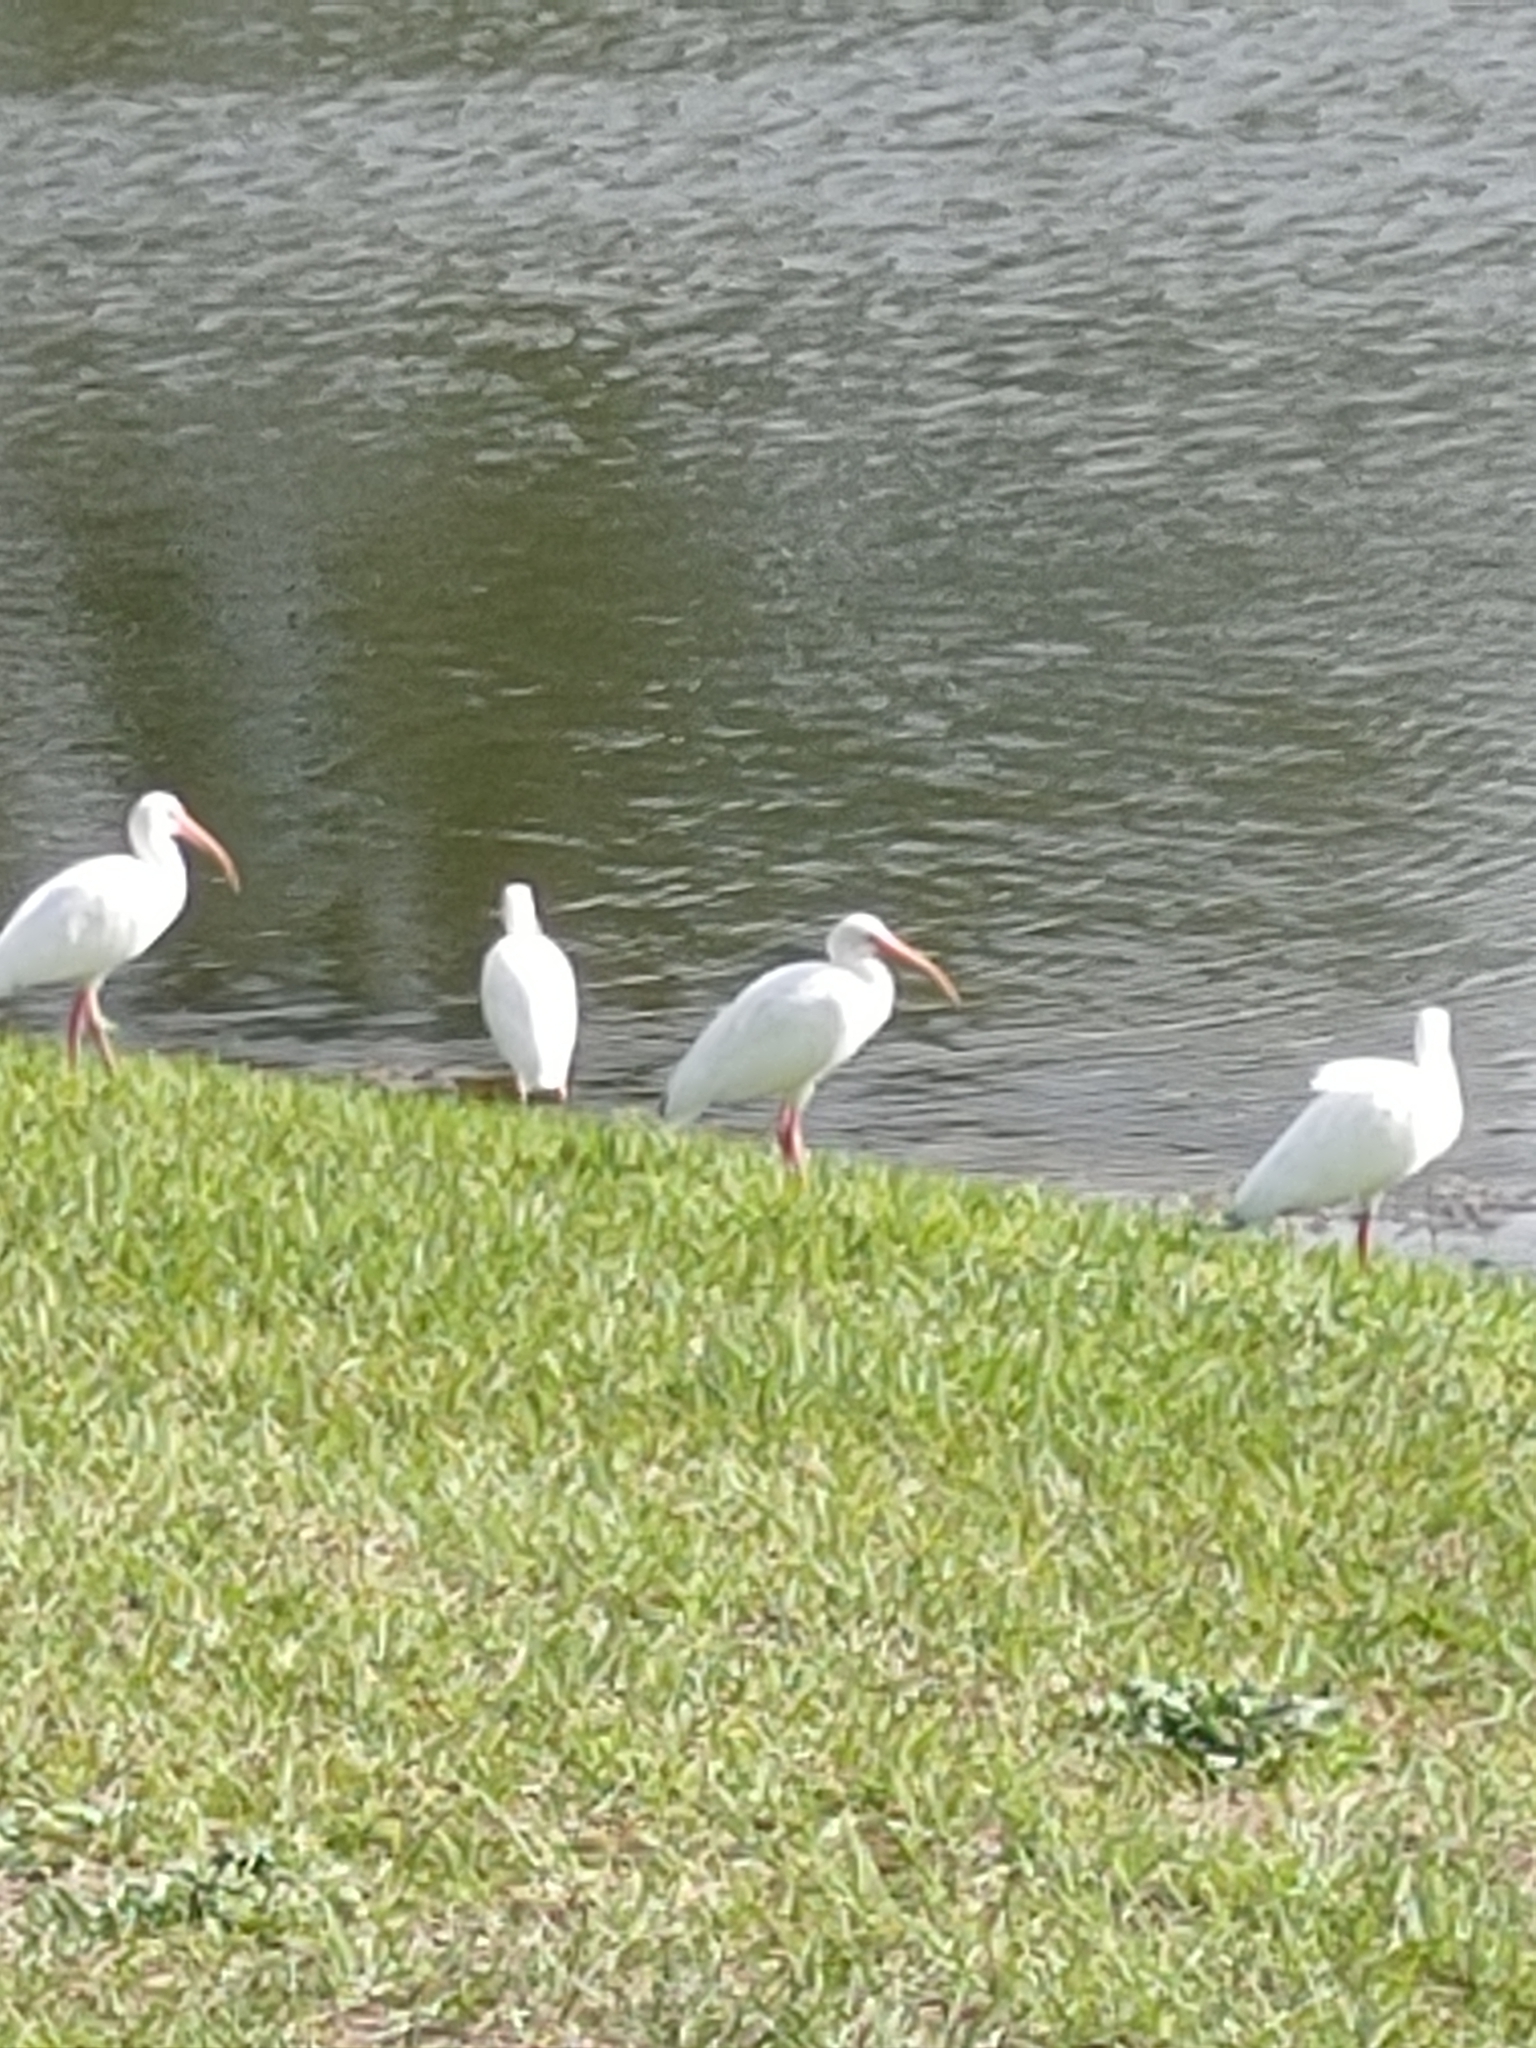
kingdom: Animalia
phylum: Chordata
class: Aves
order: Pelecaniformes
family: Threskiornithidae
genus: Eudocimus
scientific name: Eudocimus albus
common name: White ibis
